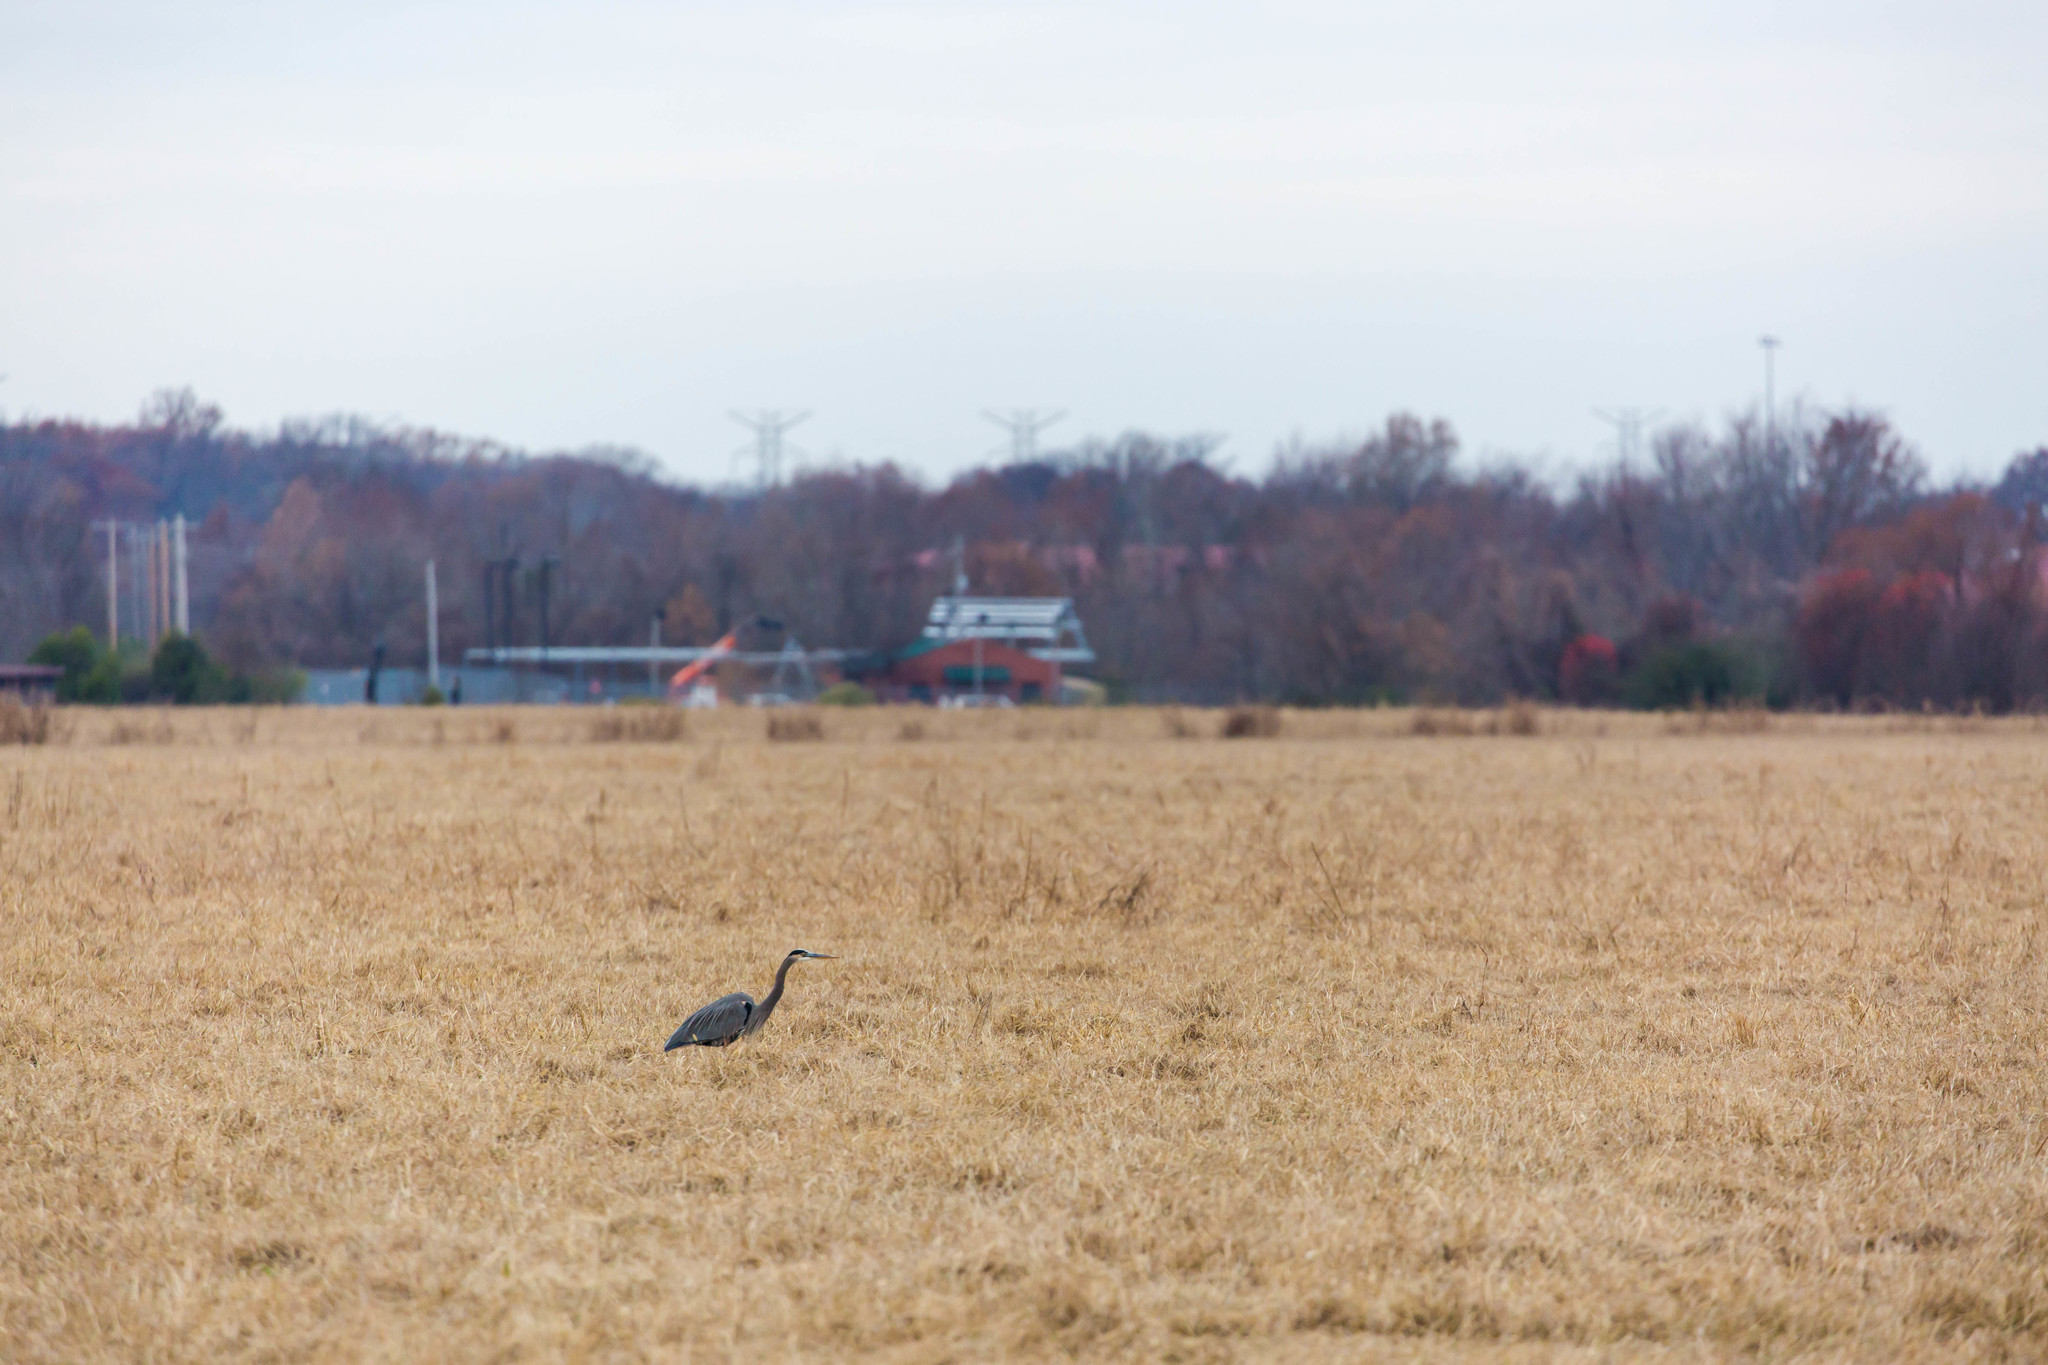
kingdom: Animalia
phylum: Chordata
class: Aves
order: Pelecaniformes
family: Ardeidae
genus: Ardea
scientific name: Ardea herodias
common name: Great blue heron
